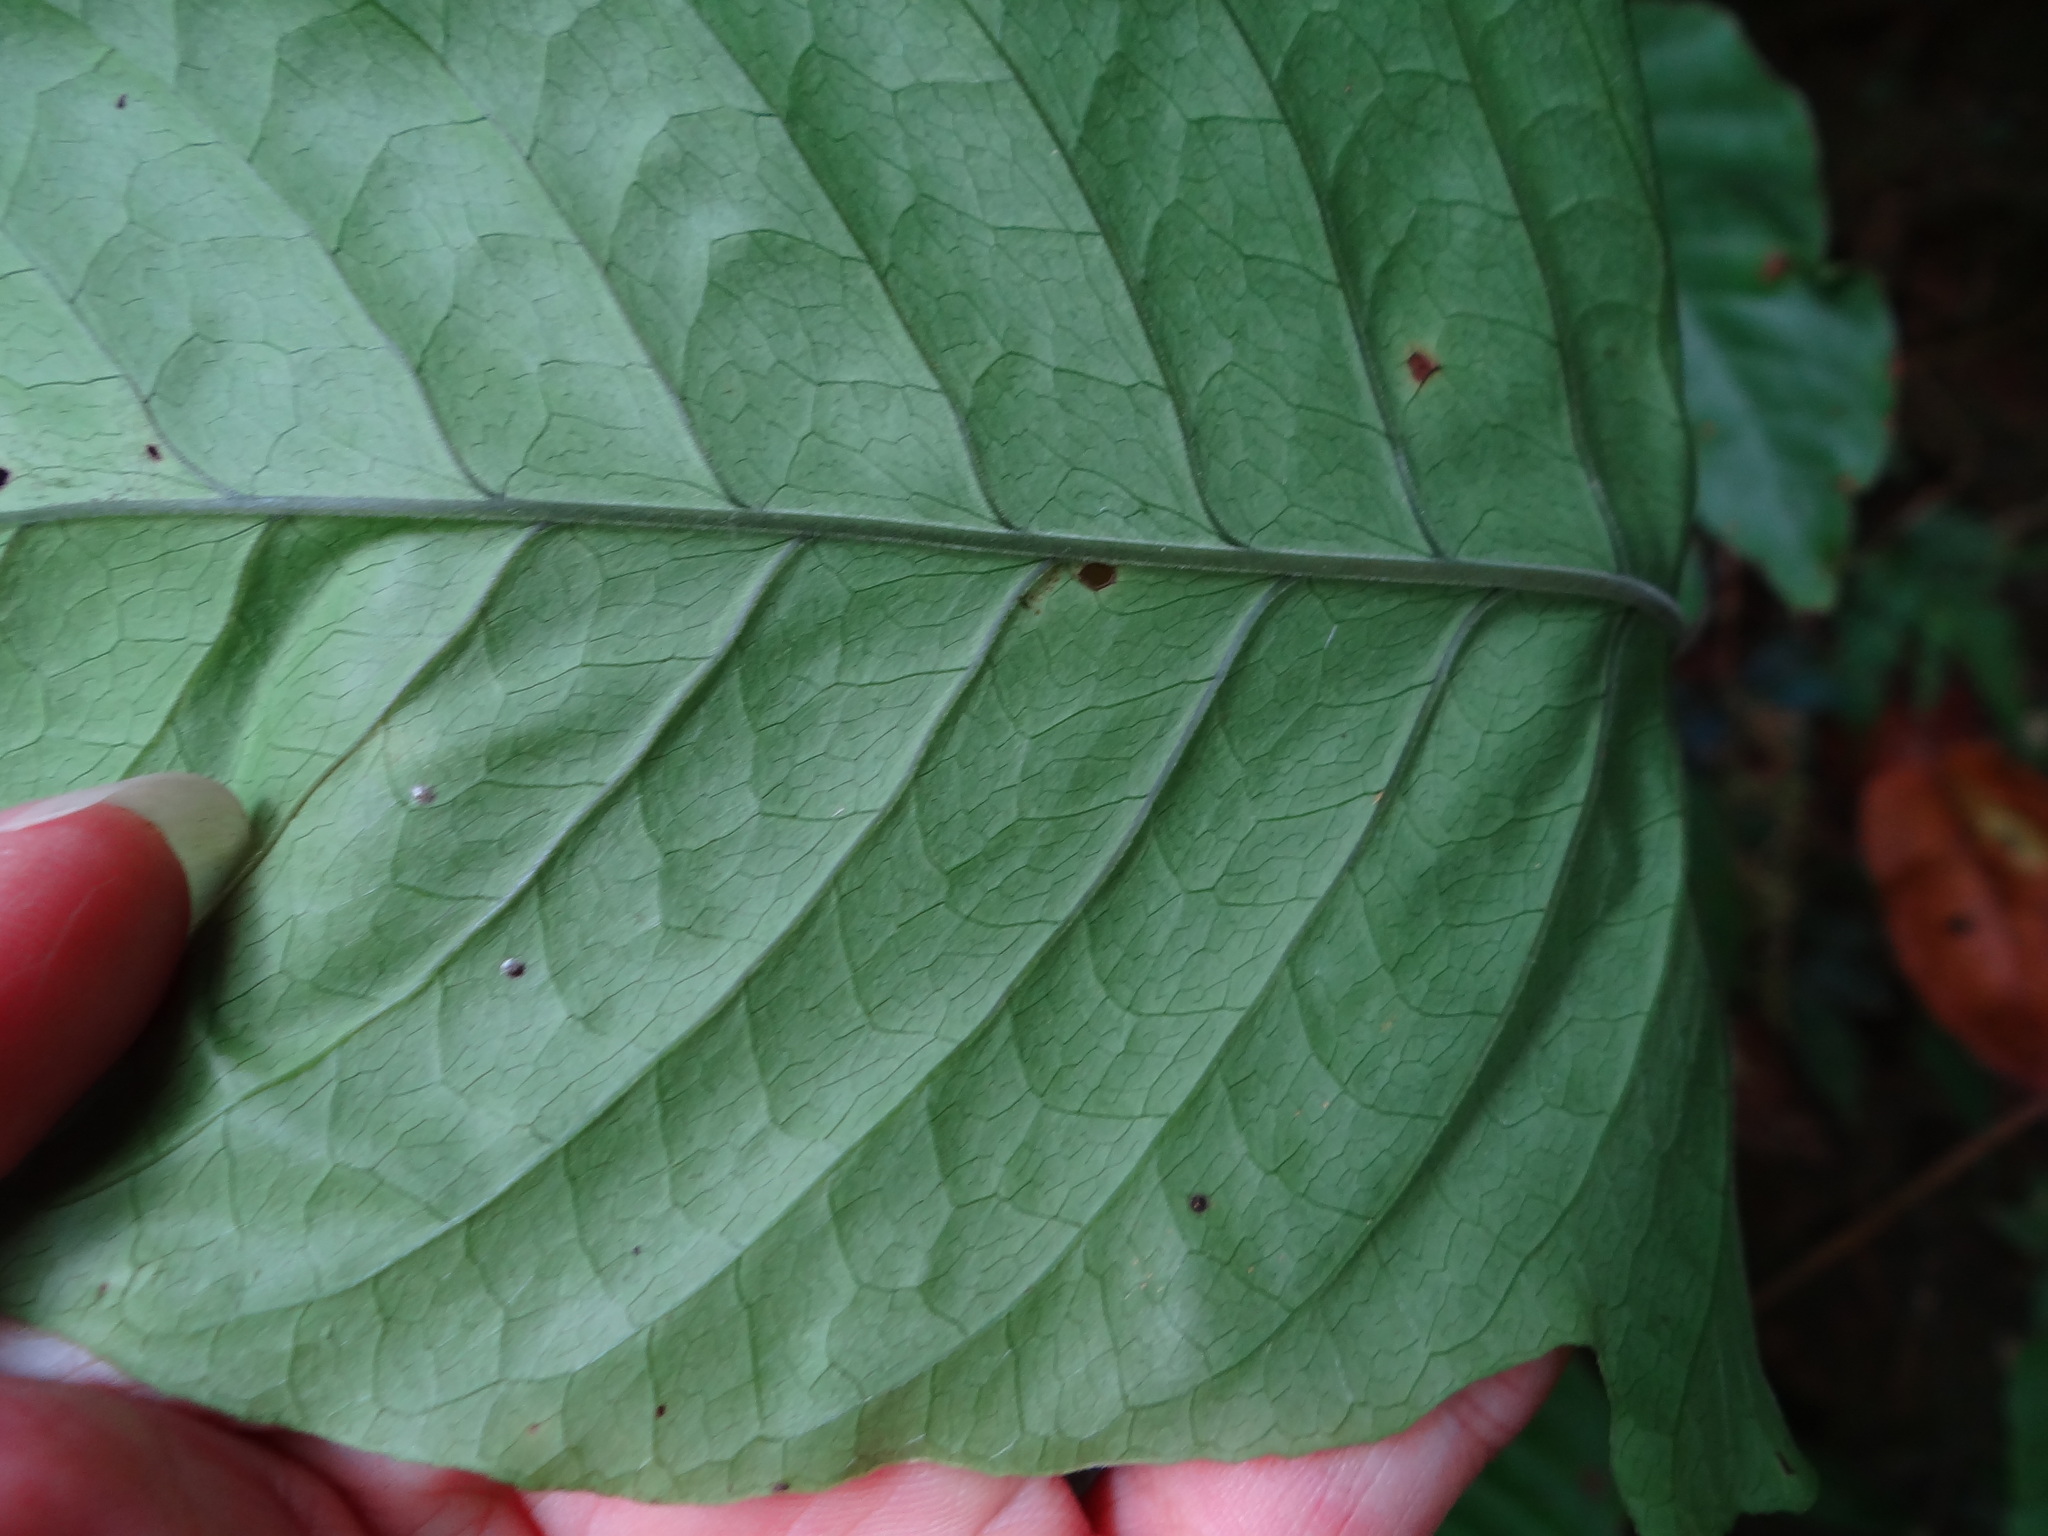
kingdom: Plantae
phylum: Tracheophyta
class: Polypodiopsida
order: Polypodiales
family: Tectariaceae
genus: Tectaria
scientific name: Tectaria polymorpha
